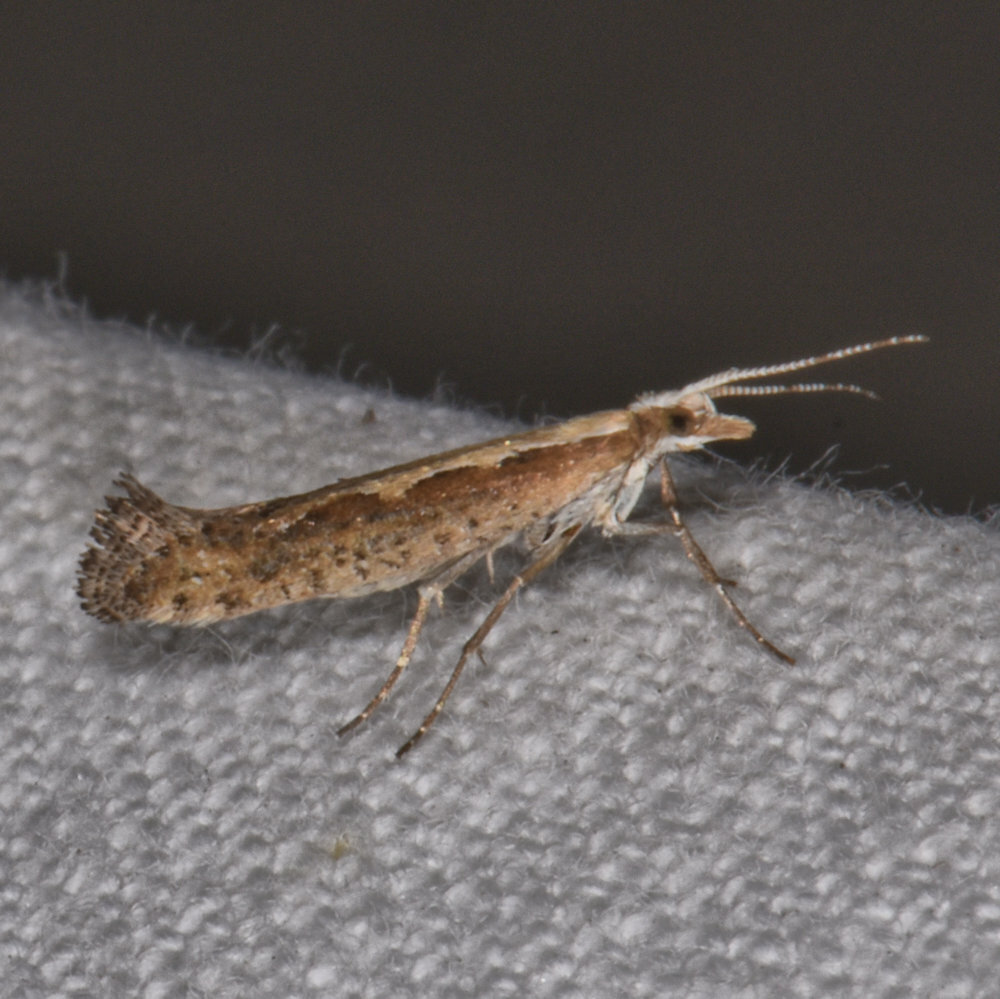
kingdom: Animalia
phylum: Arthropoda
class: Insecta
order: Lepidoptera
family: Plutellidae
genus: Plutella
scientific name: Plutella xylostella
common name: Diamond-back moth
